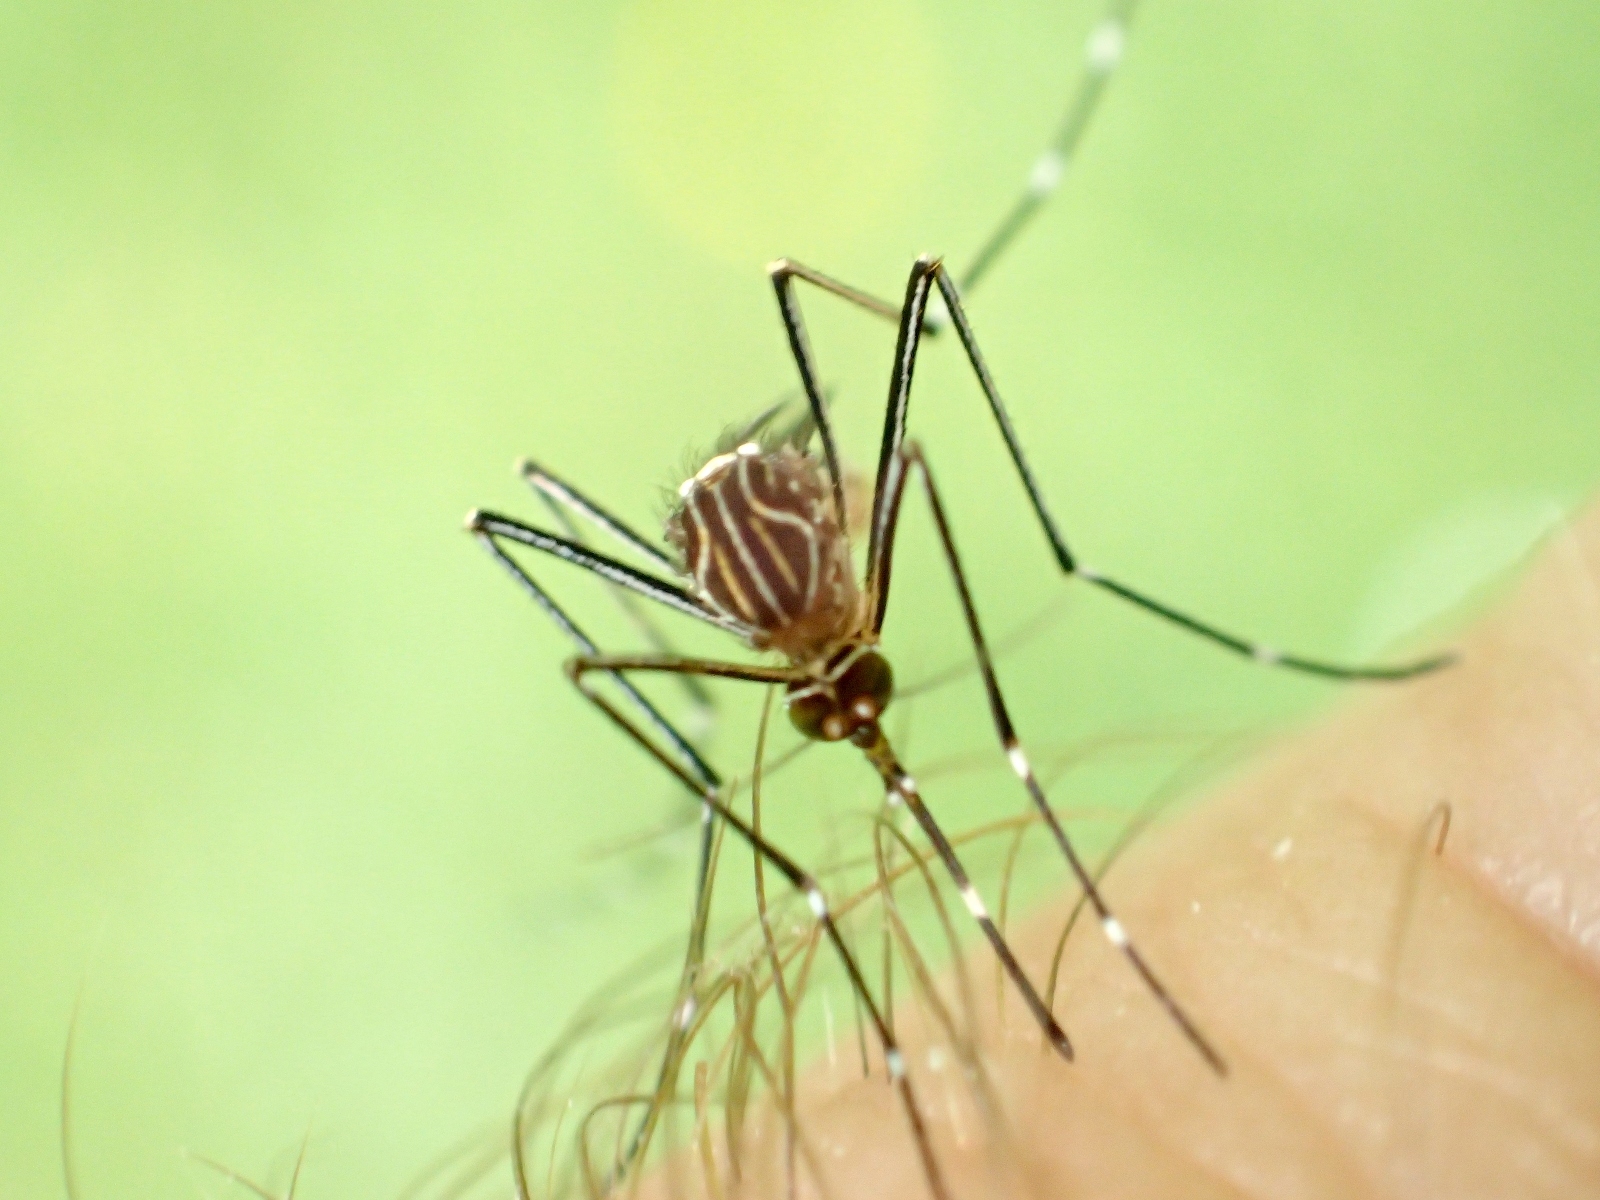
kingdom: Animalia
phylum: Arthropoda
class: Insecta
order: Diptera
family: Culicidae
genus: Aedes
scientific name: Aedes notoscriptus
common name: Australian backyard mosquito
